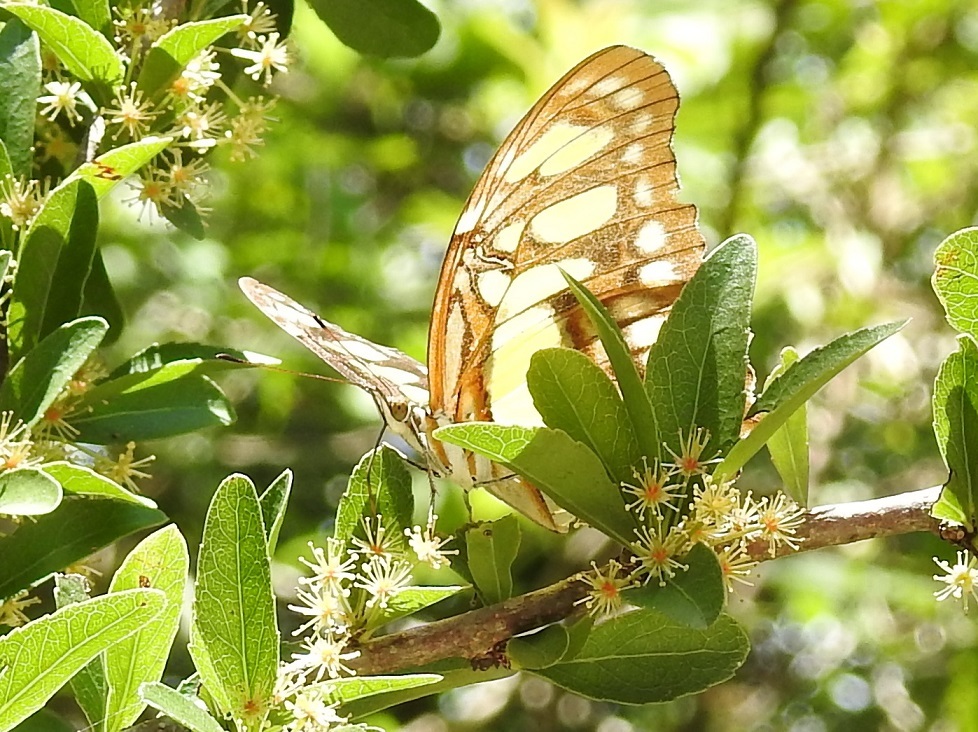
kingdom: Animalia
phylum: Arthropoda
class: Insecta
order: Lepidoptera
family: Nymphalidae
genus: Siproeta
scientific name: Siproeta stelenes
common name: Malachite
